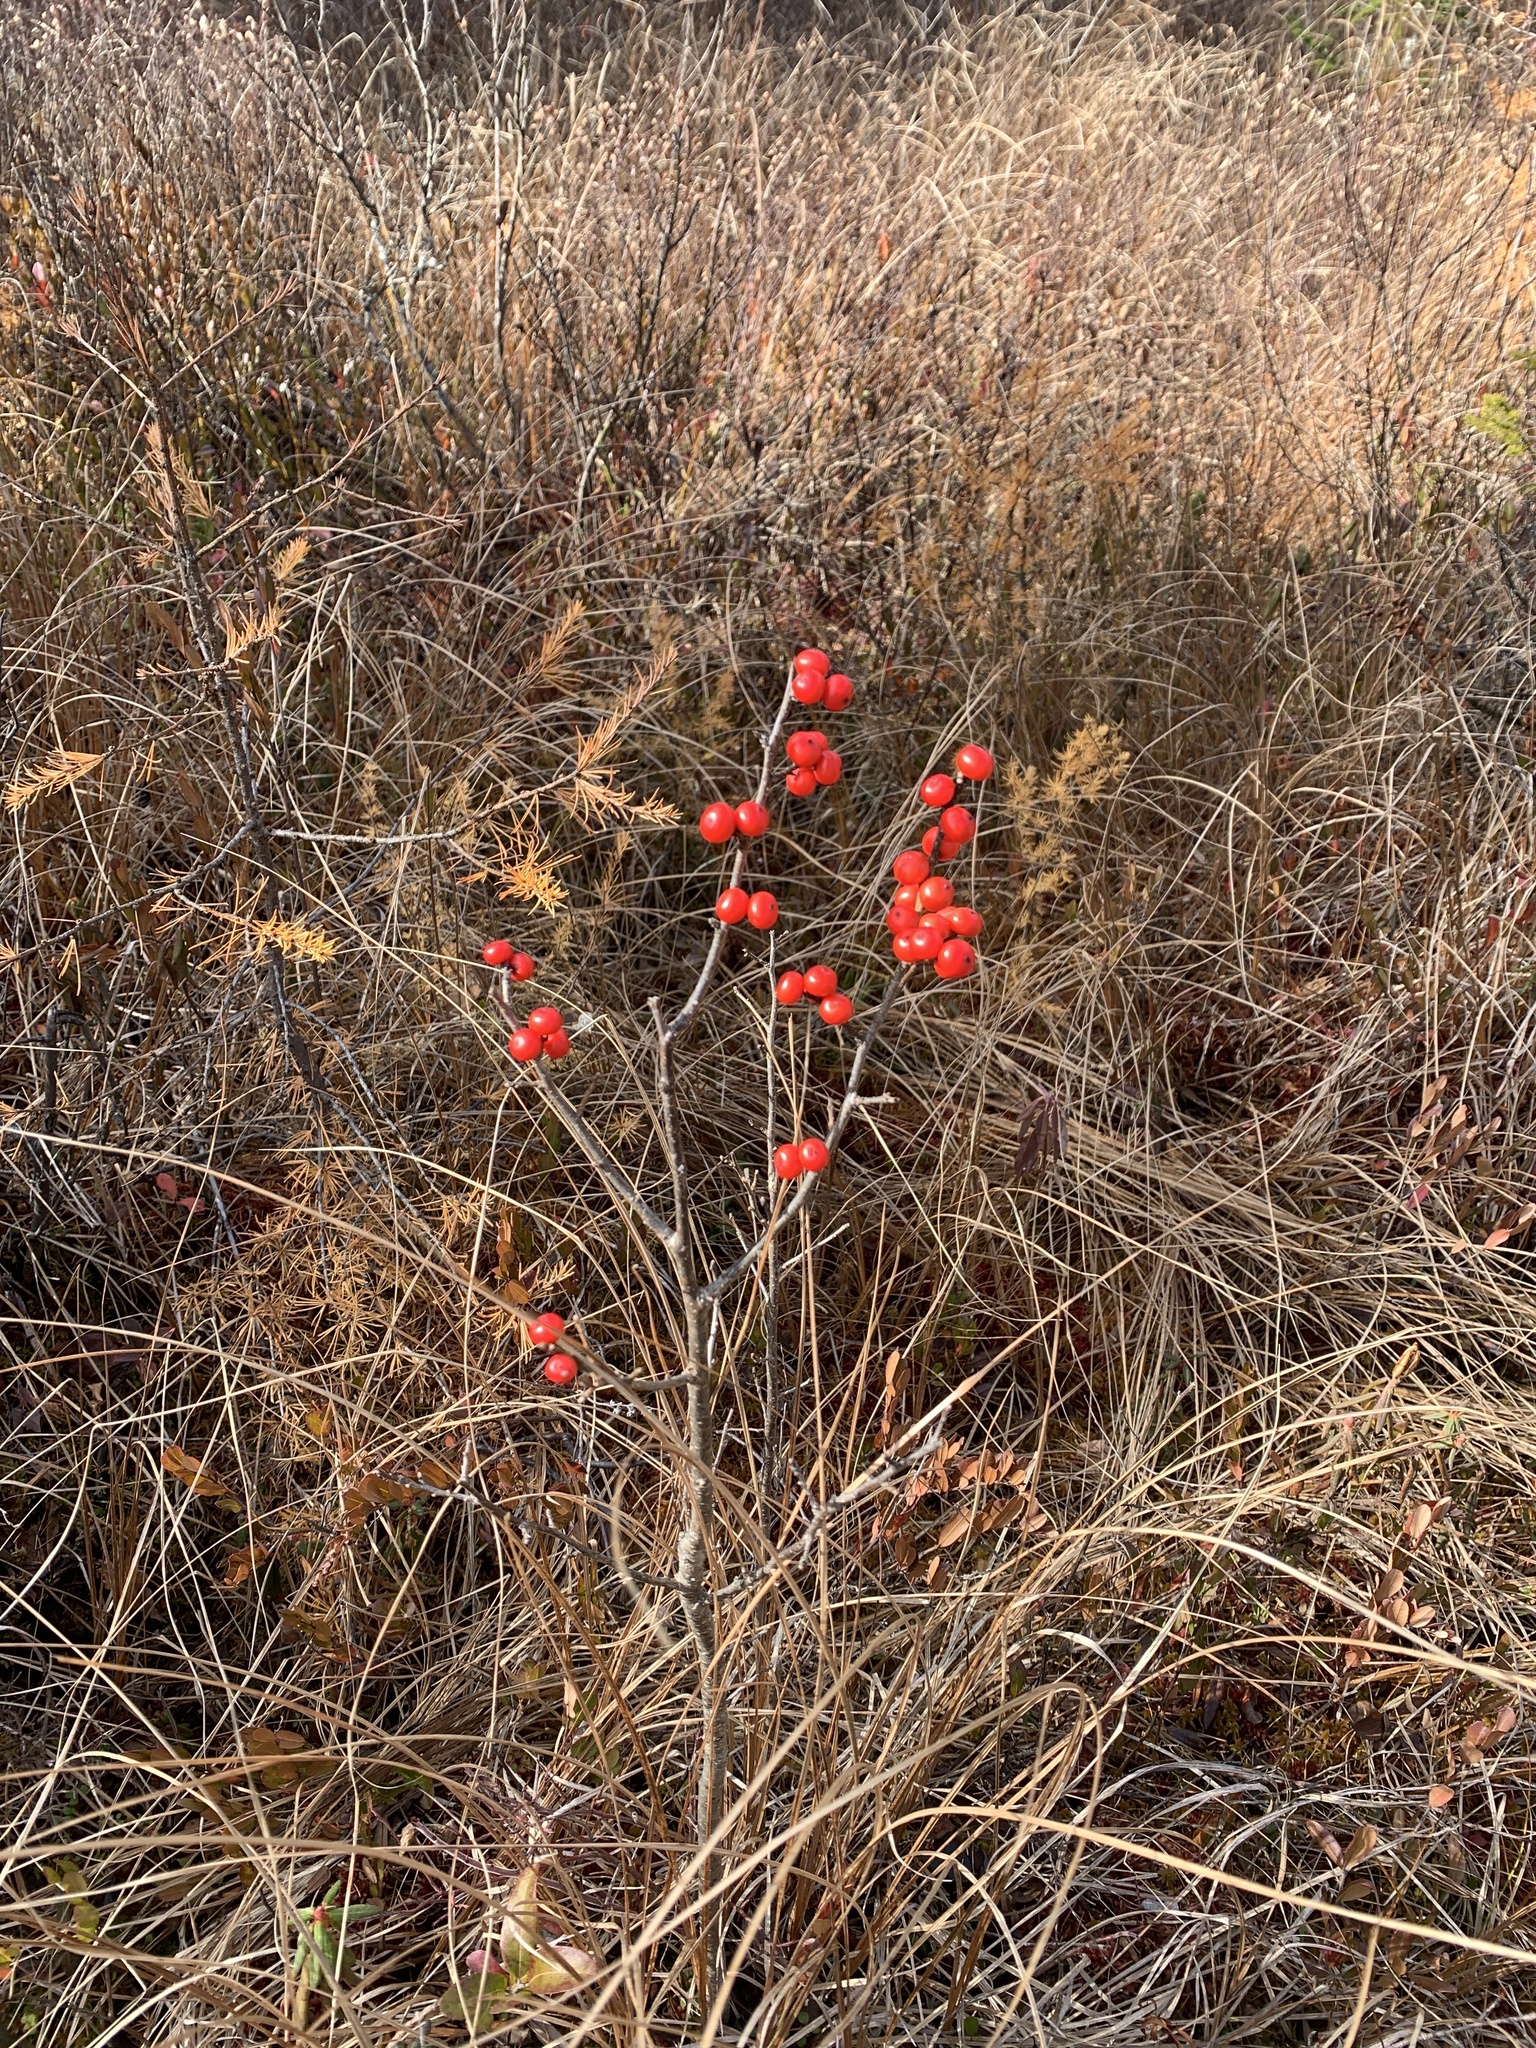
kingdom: Plantae
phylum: Tracheophyta
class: Magnoliopsida
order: Aquifoliales
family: Aquifoliaceae
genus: Ilex
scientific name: Ilex verticillata
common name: Virginia winterberry
